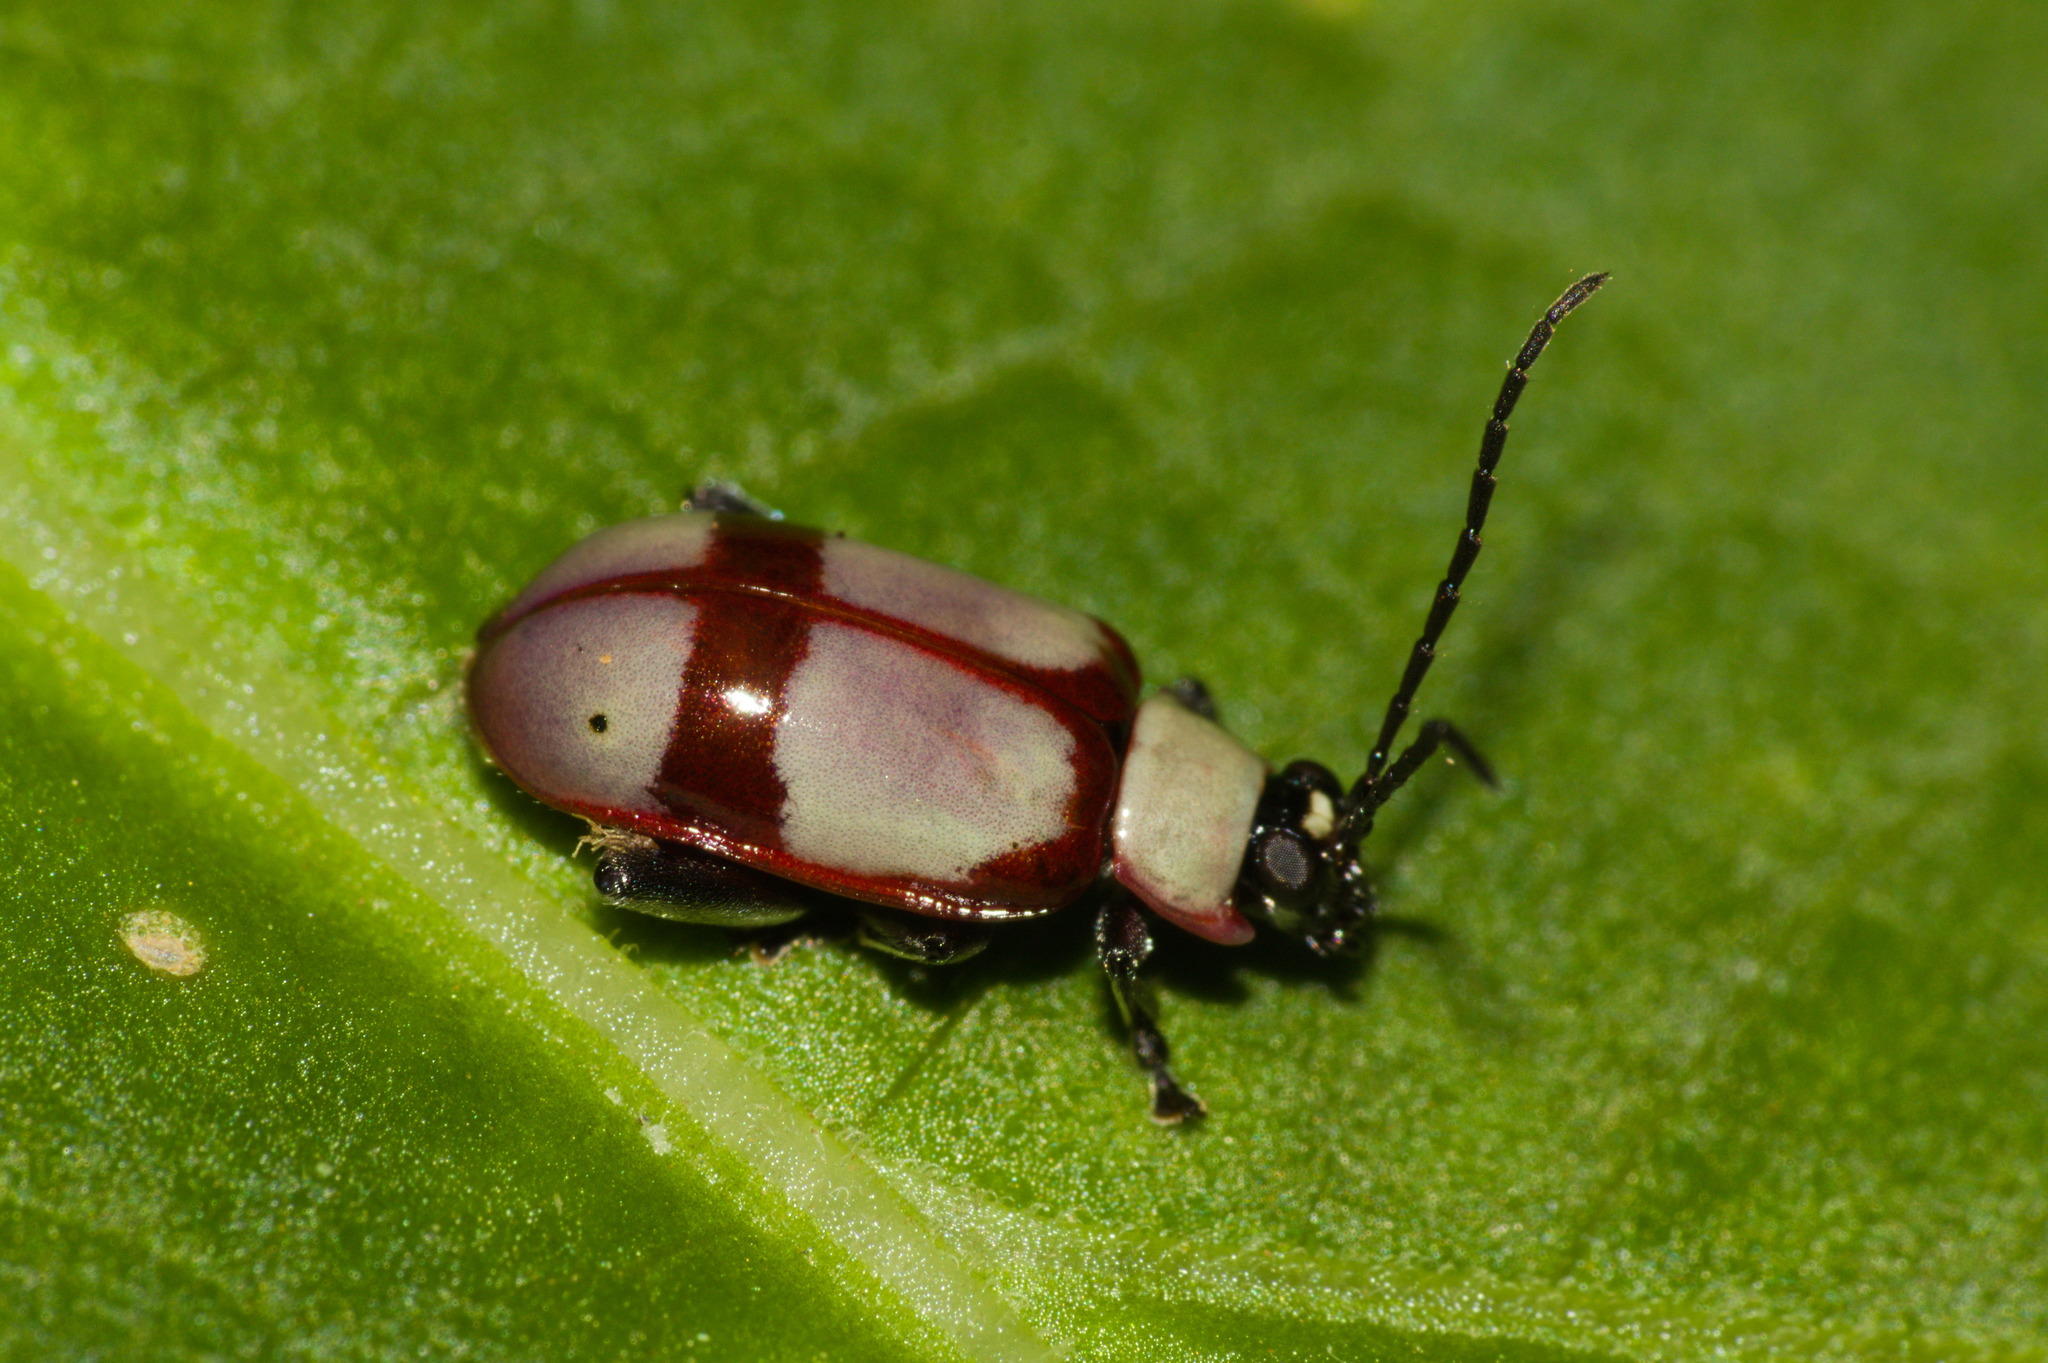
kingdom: Animalia
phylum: Arthropoda
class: Insecta
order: Coleoptera
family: Chrysomelidae
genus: Omophoita
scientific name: Omophoita
